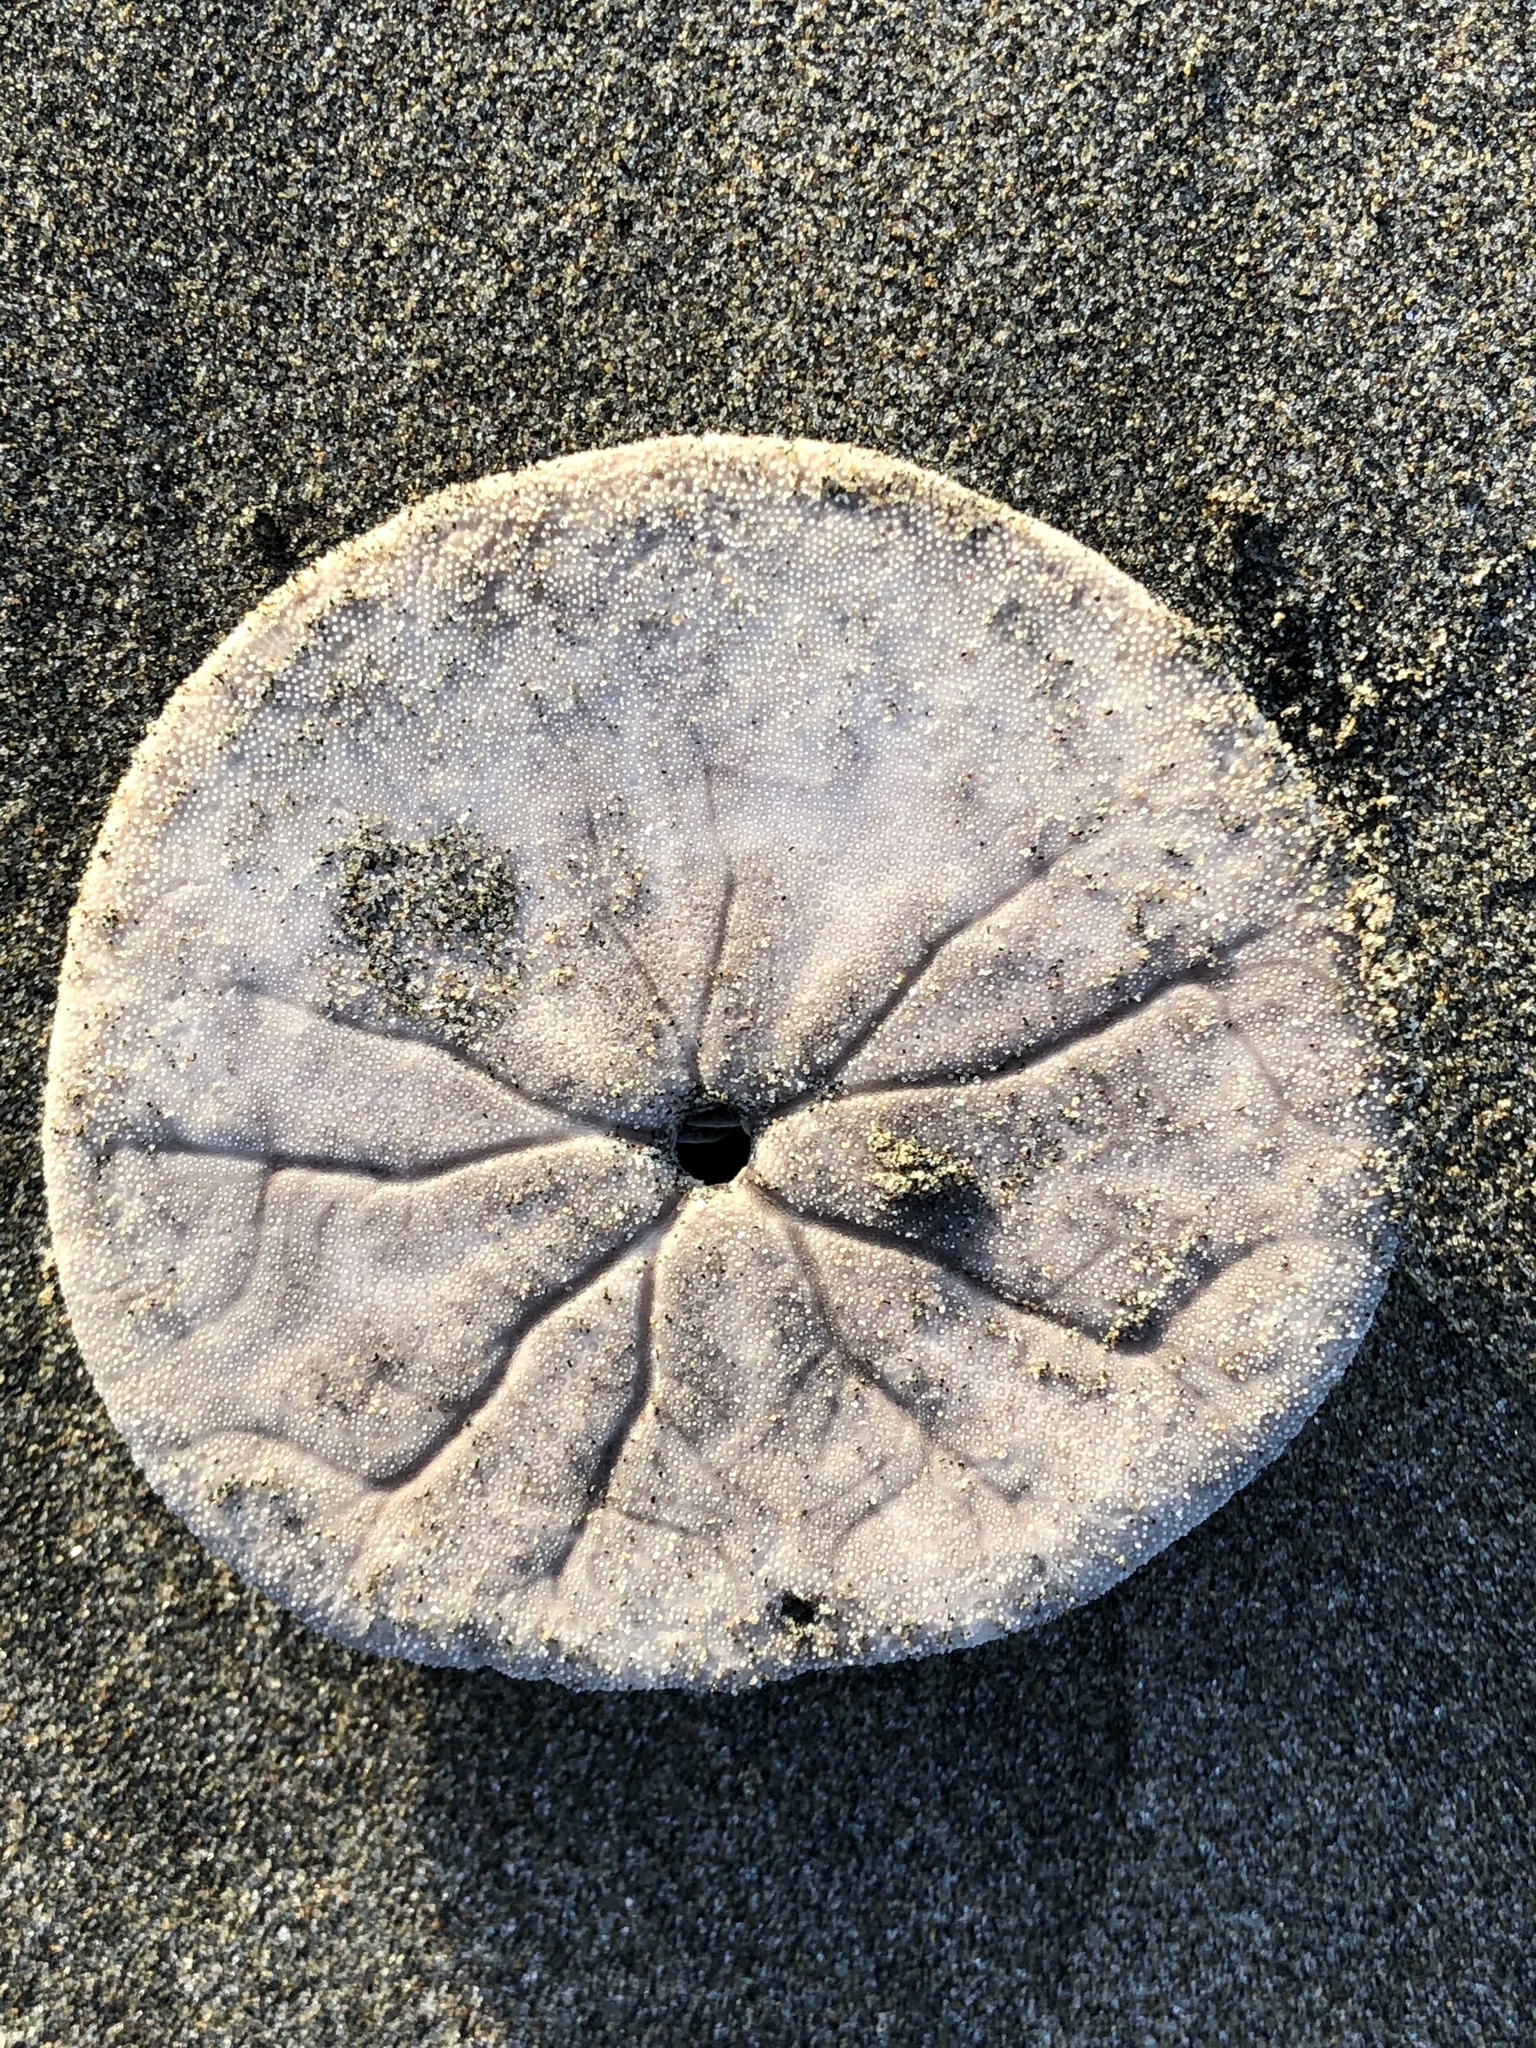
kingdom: Animalia
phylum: Echinodermata
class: Echinoidea
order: Echinolampadacea
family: Dendrasteridae
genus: Dendraster
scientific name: Dendraster excentricus
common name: Eccentric sand dollar sea urchin
